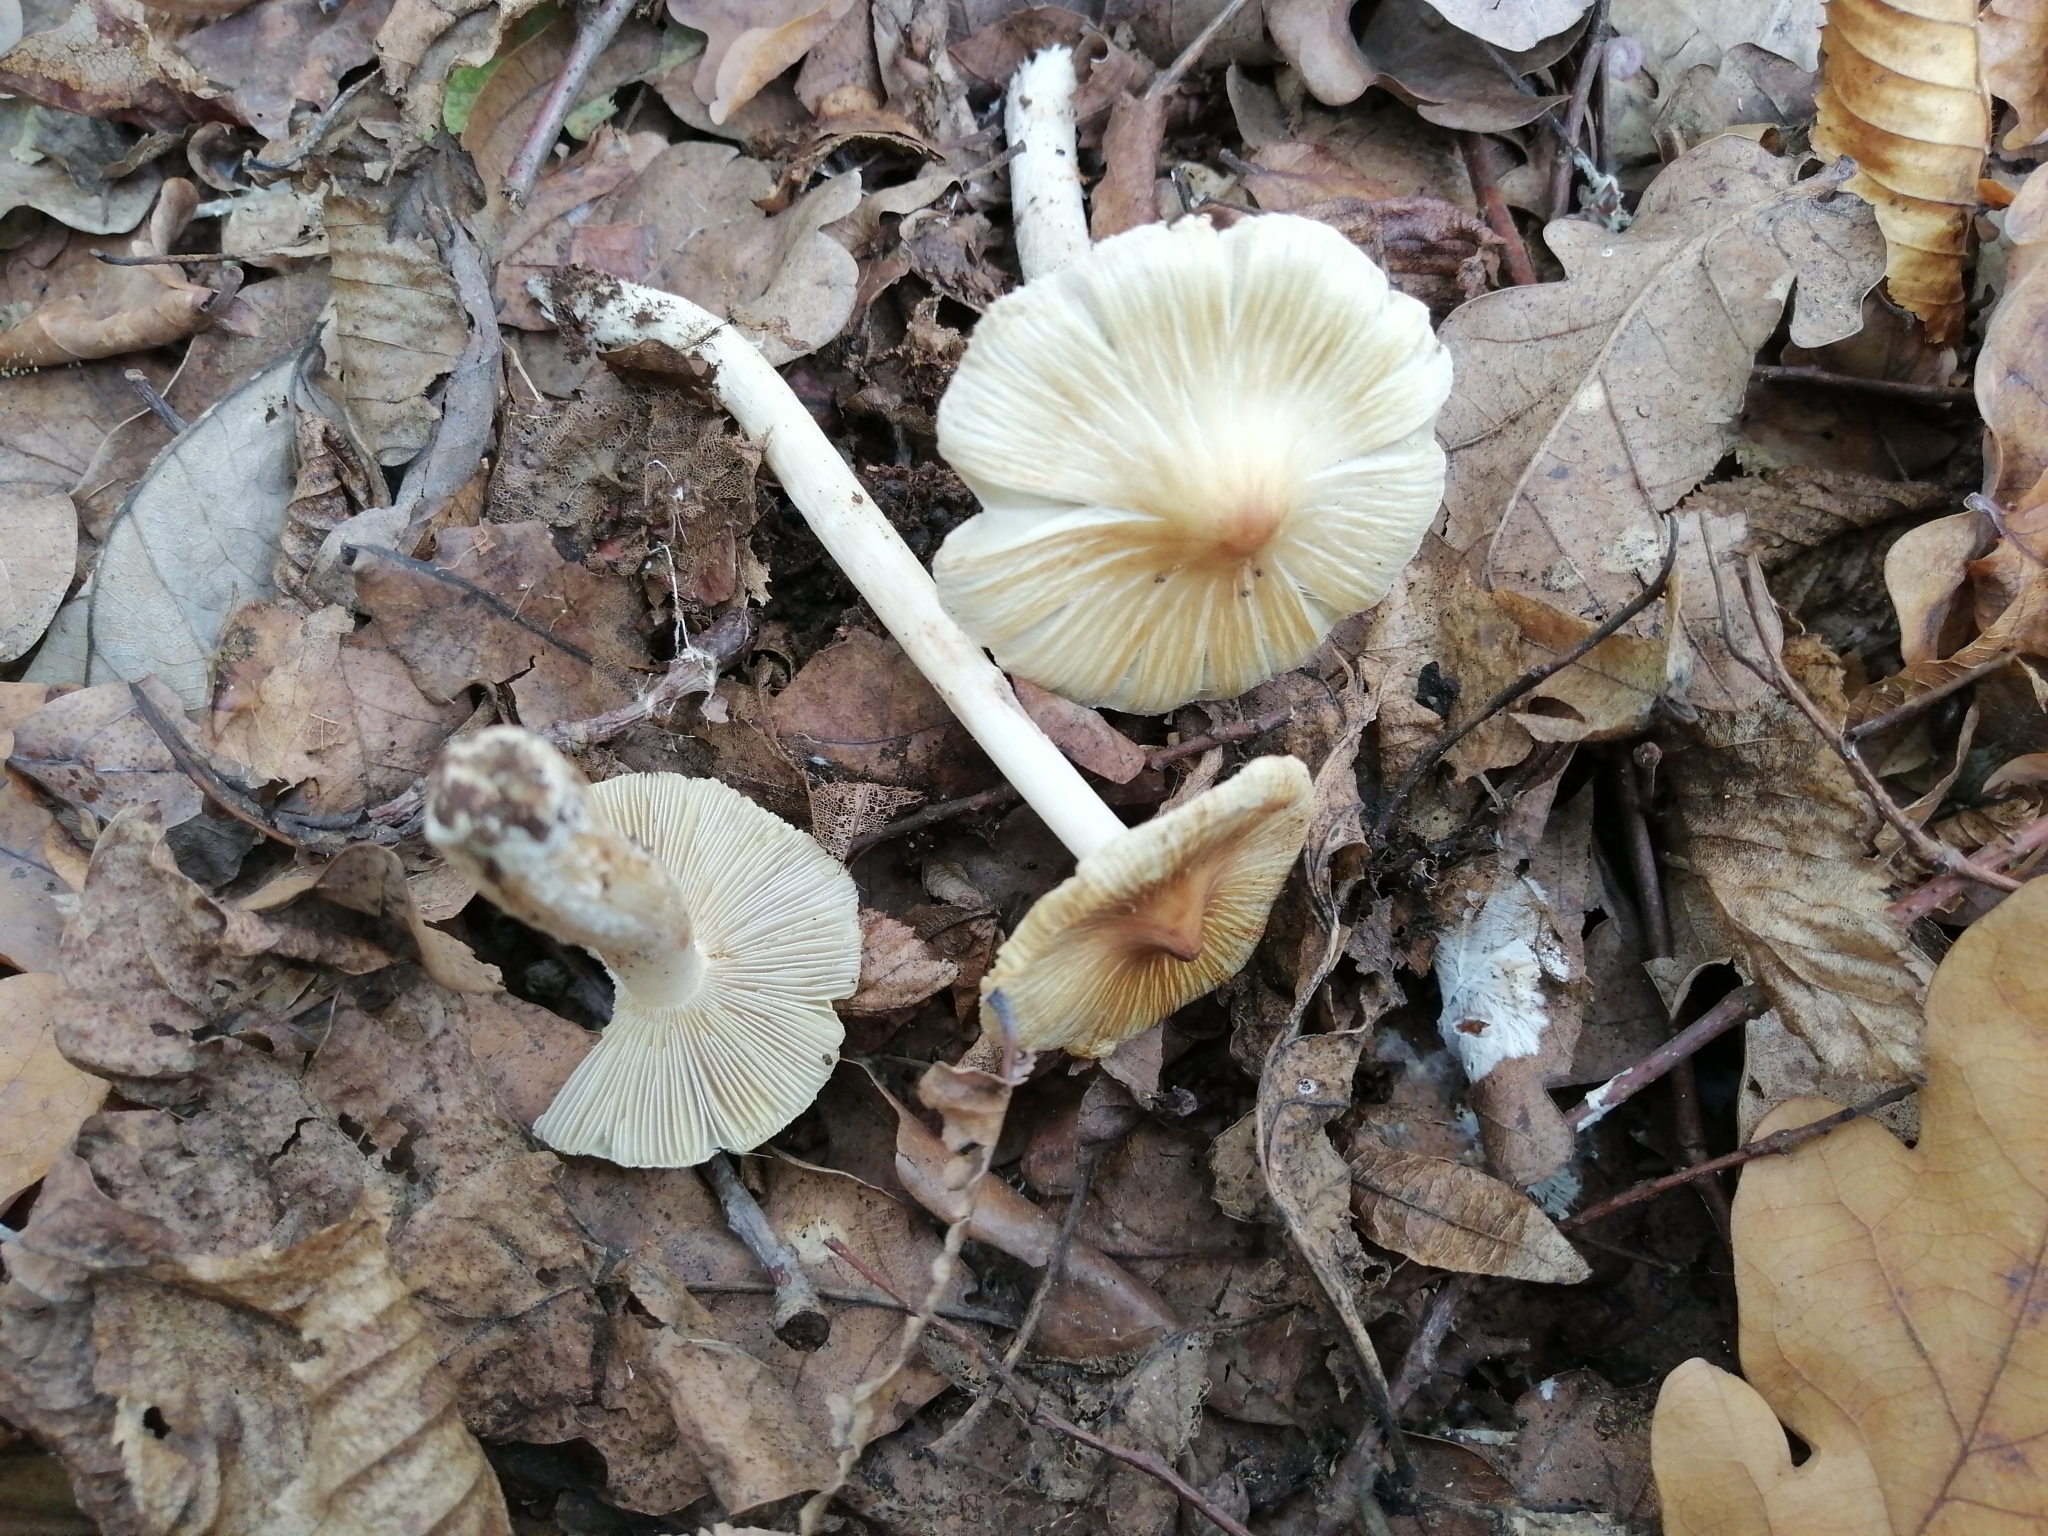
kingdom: Fungi
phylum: Basidiomycota
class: Agaricomycetes
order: Agaricales
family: Inocybaceae
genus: Pseudosperma
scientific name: Pseudosperma rimosum
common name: Split fibrecap
